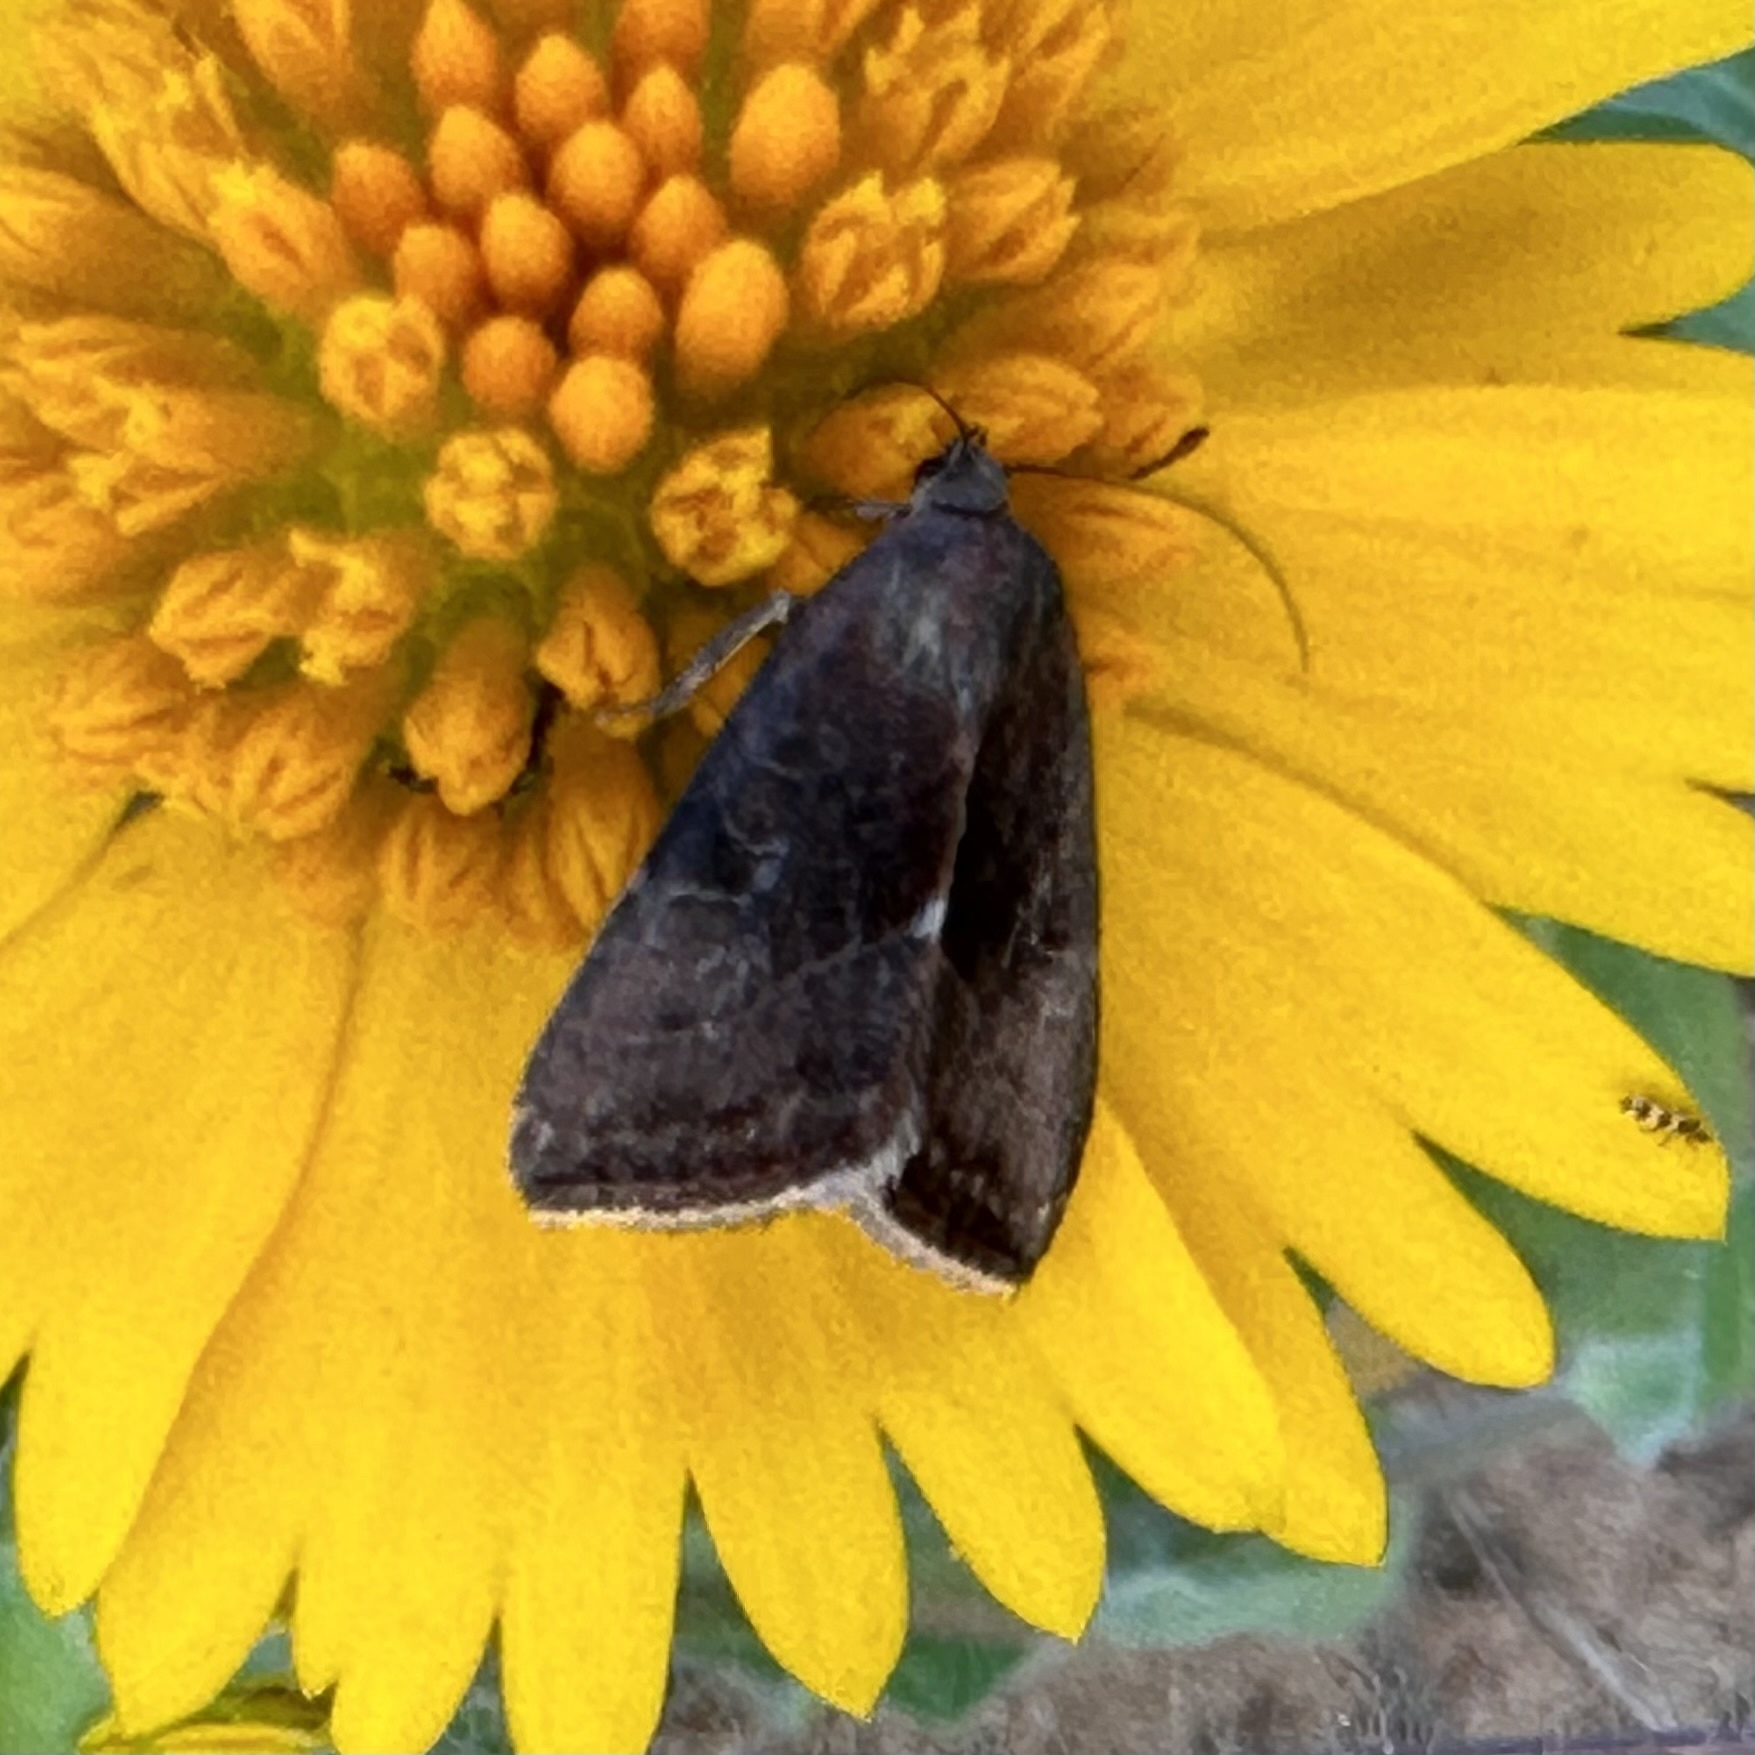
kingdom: Animalia
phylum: Arthropoda
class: Insecta
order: Lepidoptera
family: Noctuidae
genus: Galgula
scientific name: Galgula partita
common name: Wedgeling
